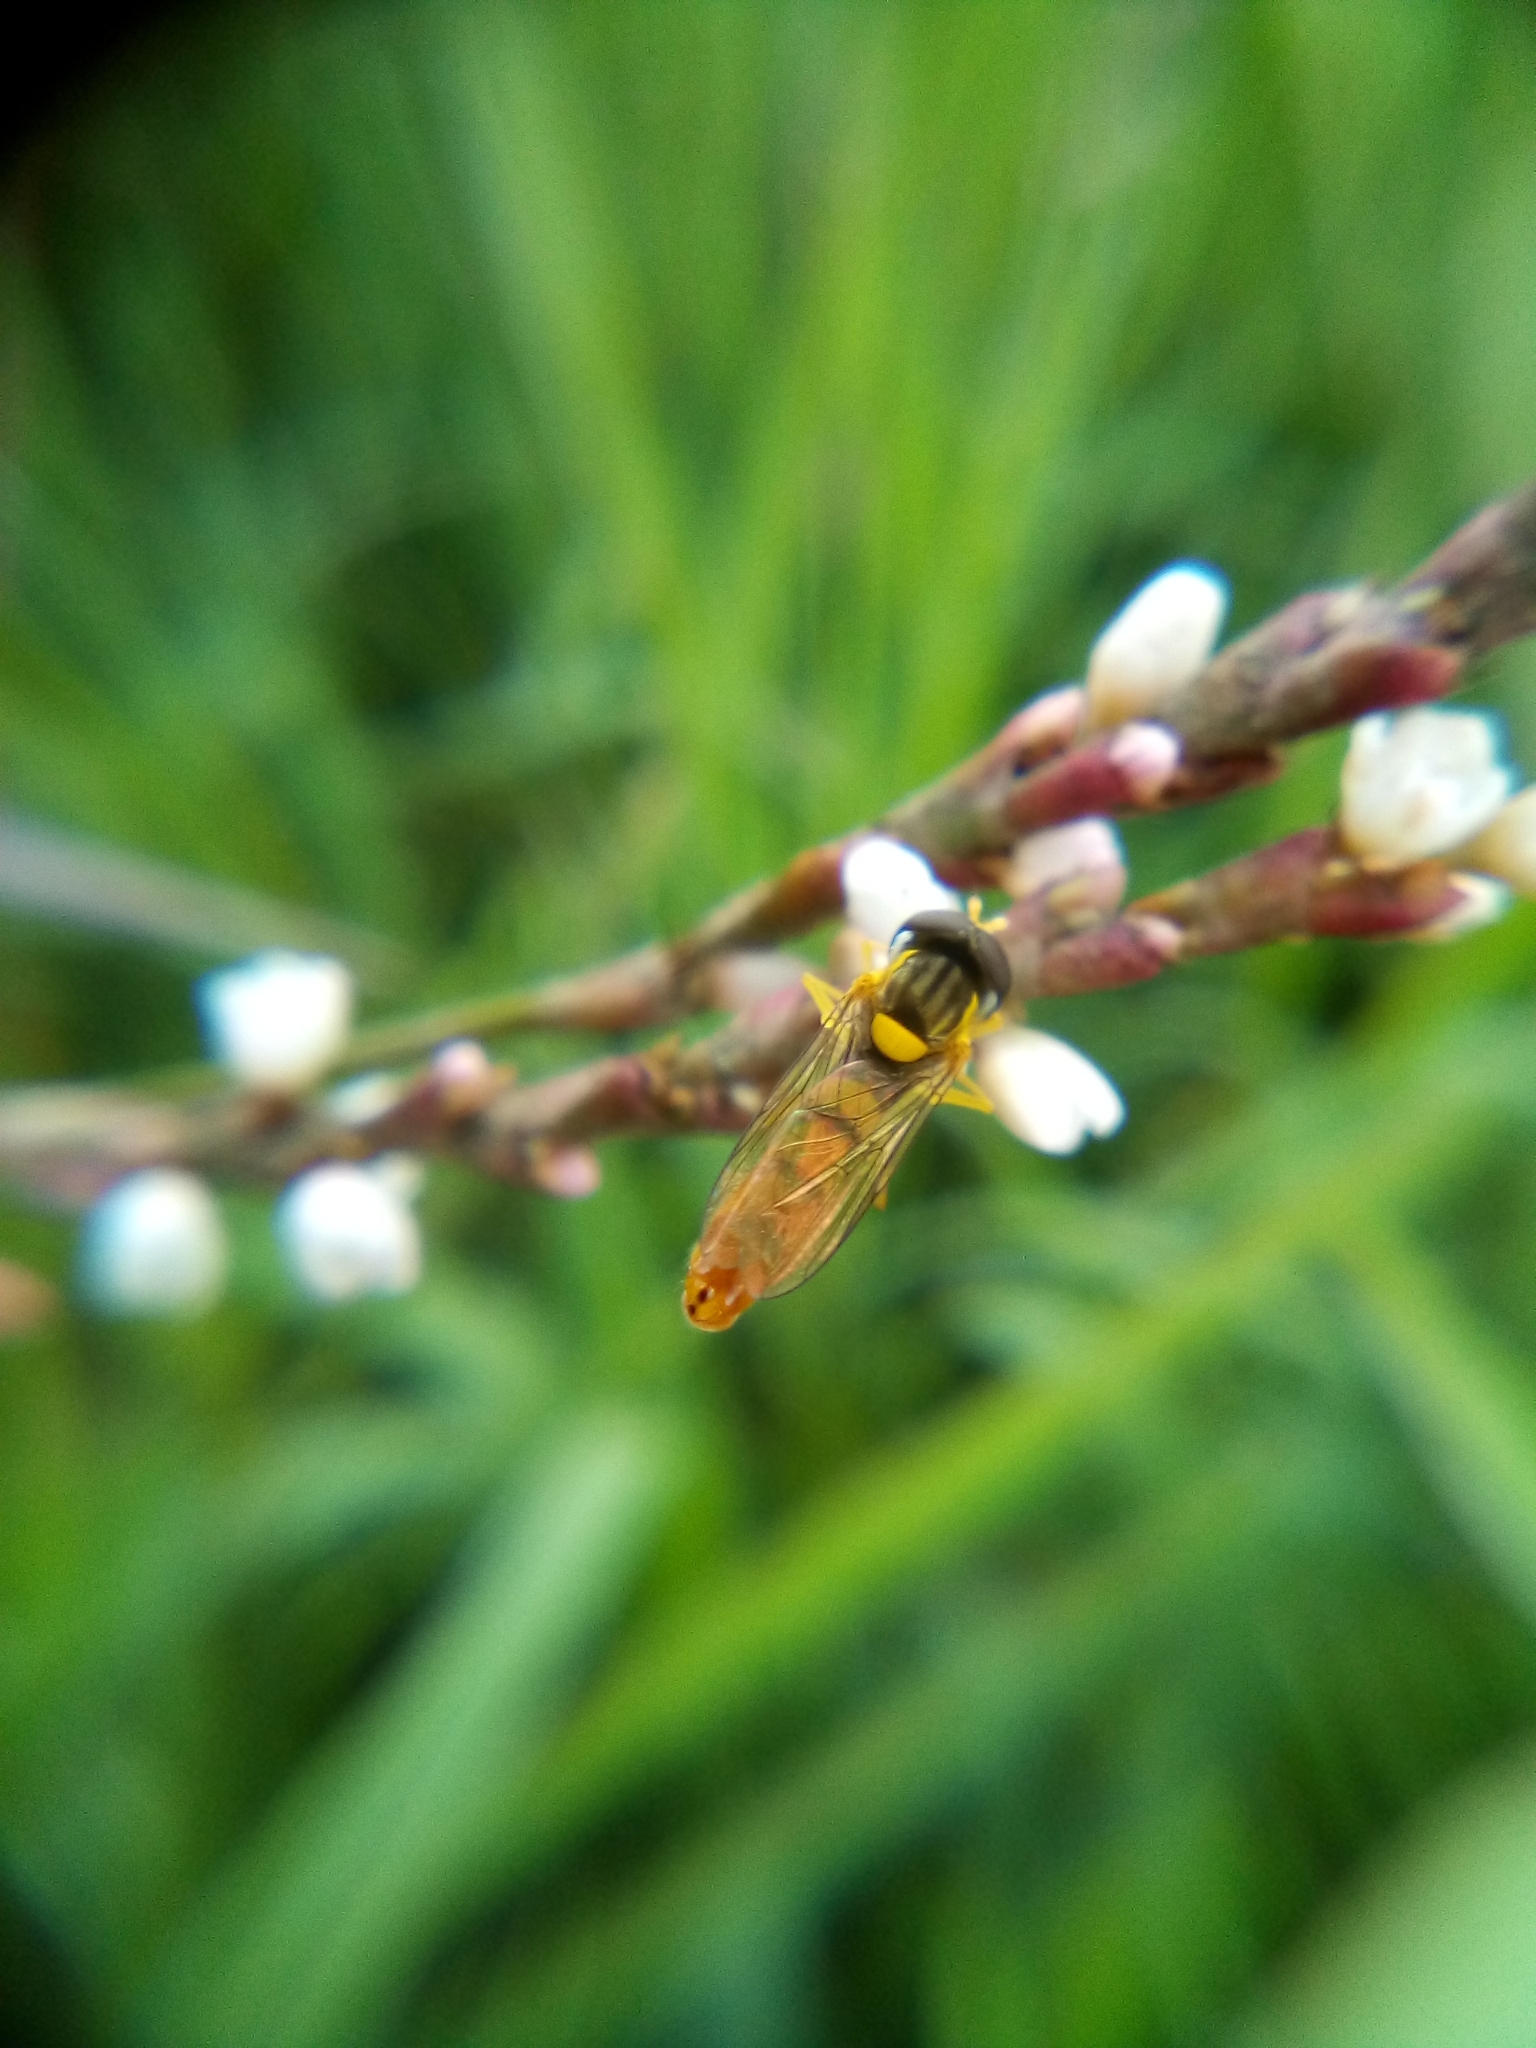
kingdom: Animalia
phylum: Arthropoda
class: Insecta
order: Diptera
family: Syrphidae
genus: Sphaerophoria
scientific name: Sphaerophoria macrogaster
